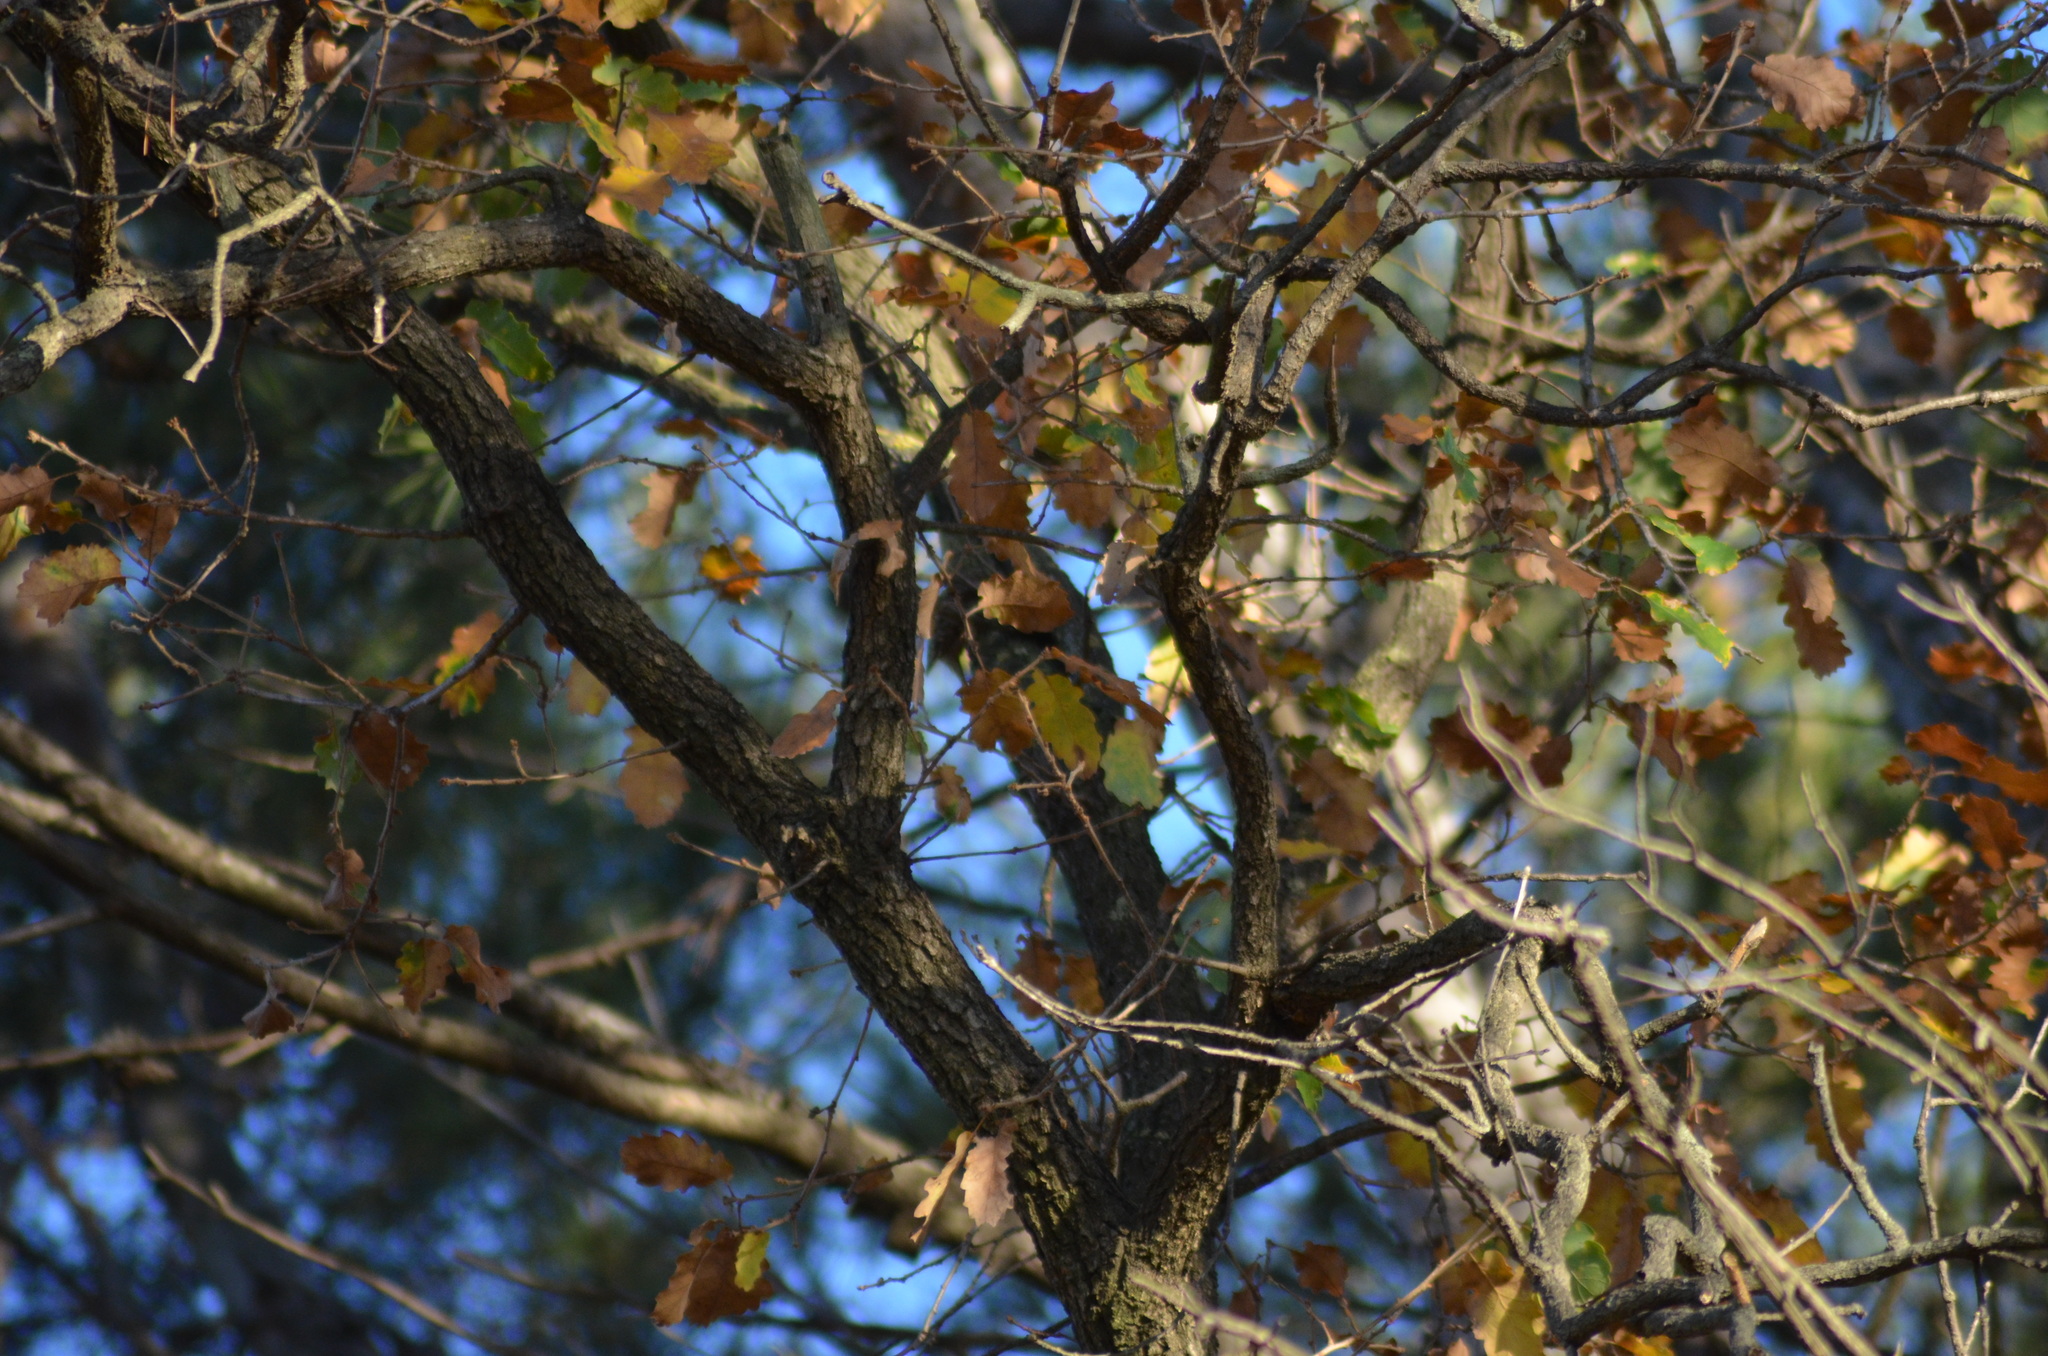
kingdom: Animalia
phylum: Chordata
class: Aves
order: Passeriformes
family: Fringillidae
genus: Fringilla
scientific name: Fringilla coelebs
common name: Common chaffinch
